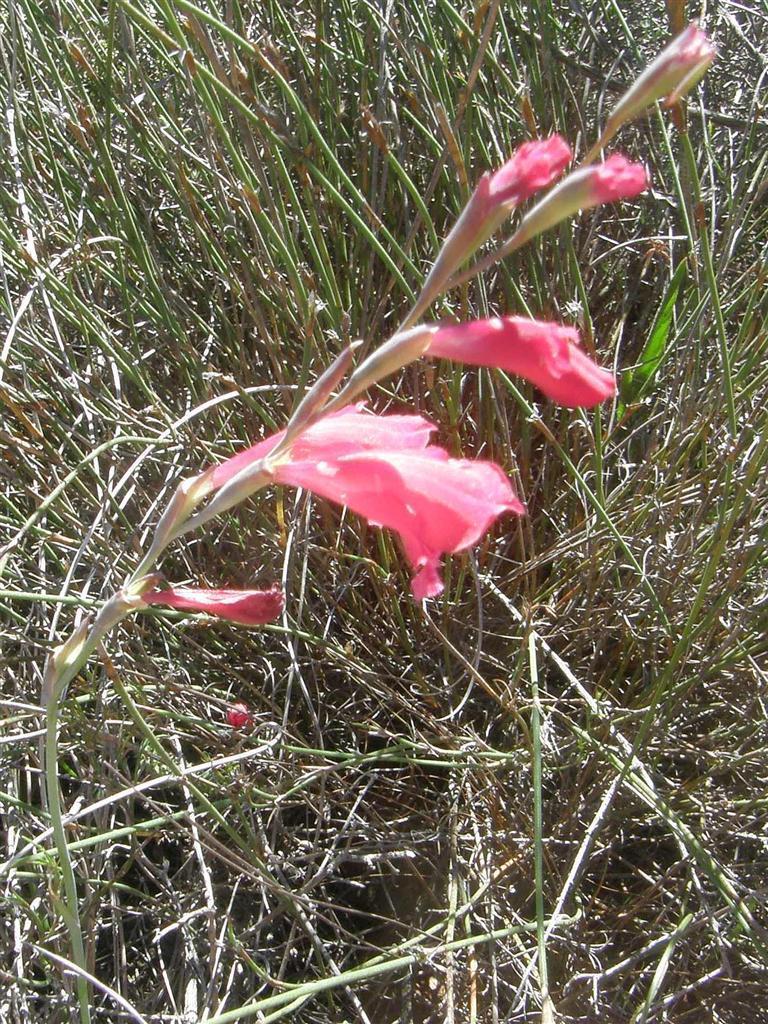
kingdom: Plantae
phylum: Tracheophyta
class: Liliopsida
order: Asparagales
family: Iridaceae
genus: Gladiolus
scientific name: Gladiolus brevifolius
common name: March pypie
